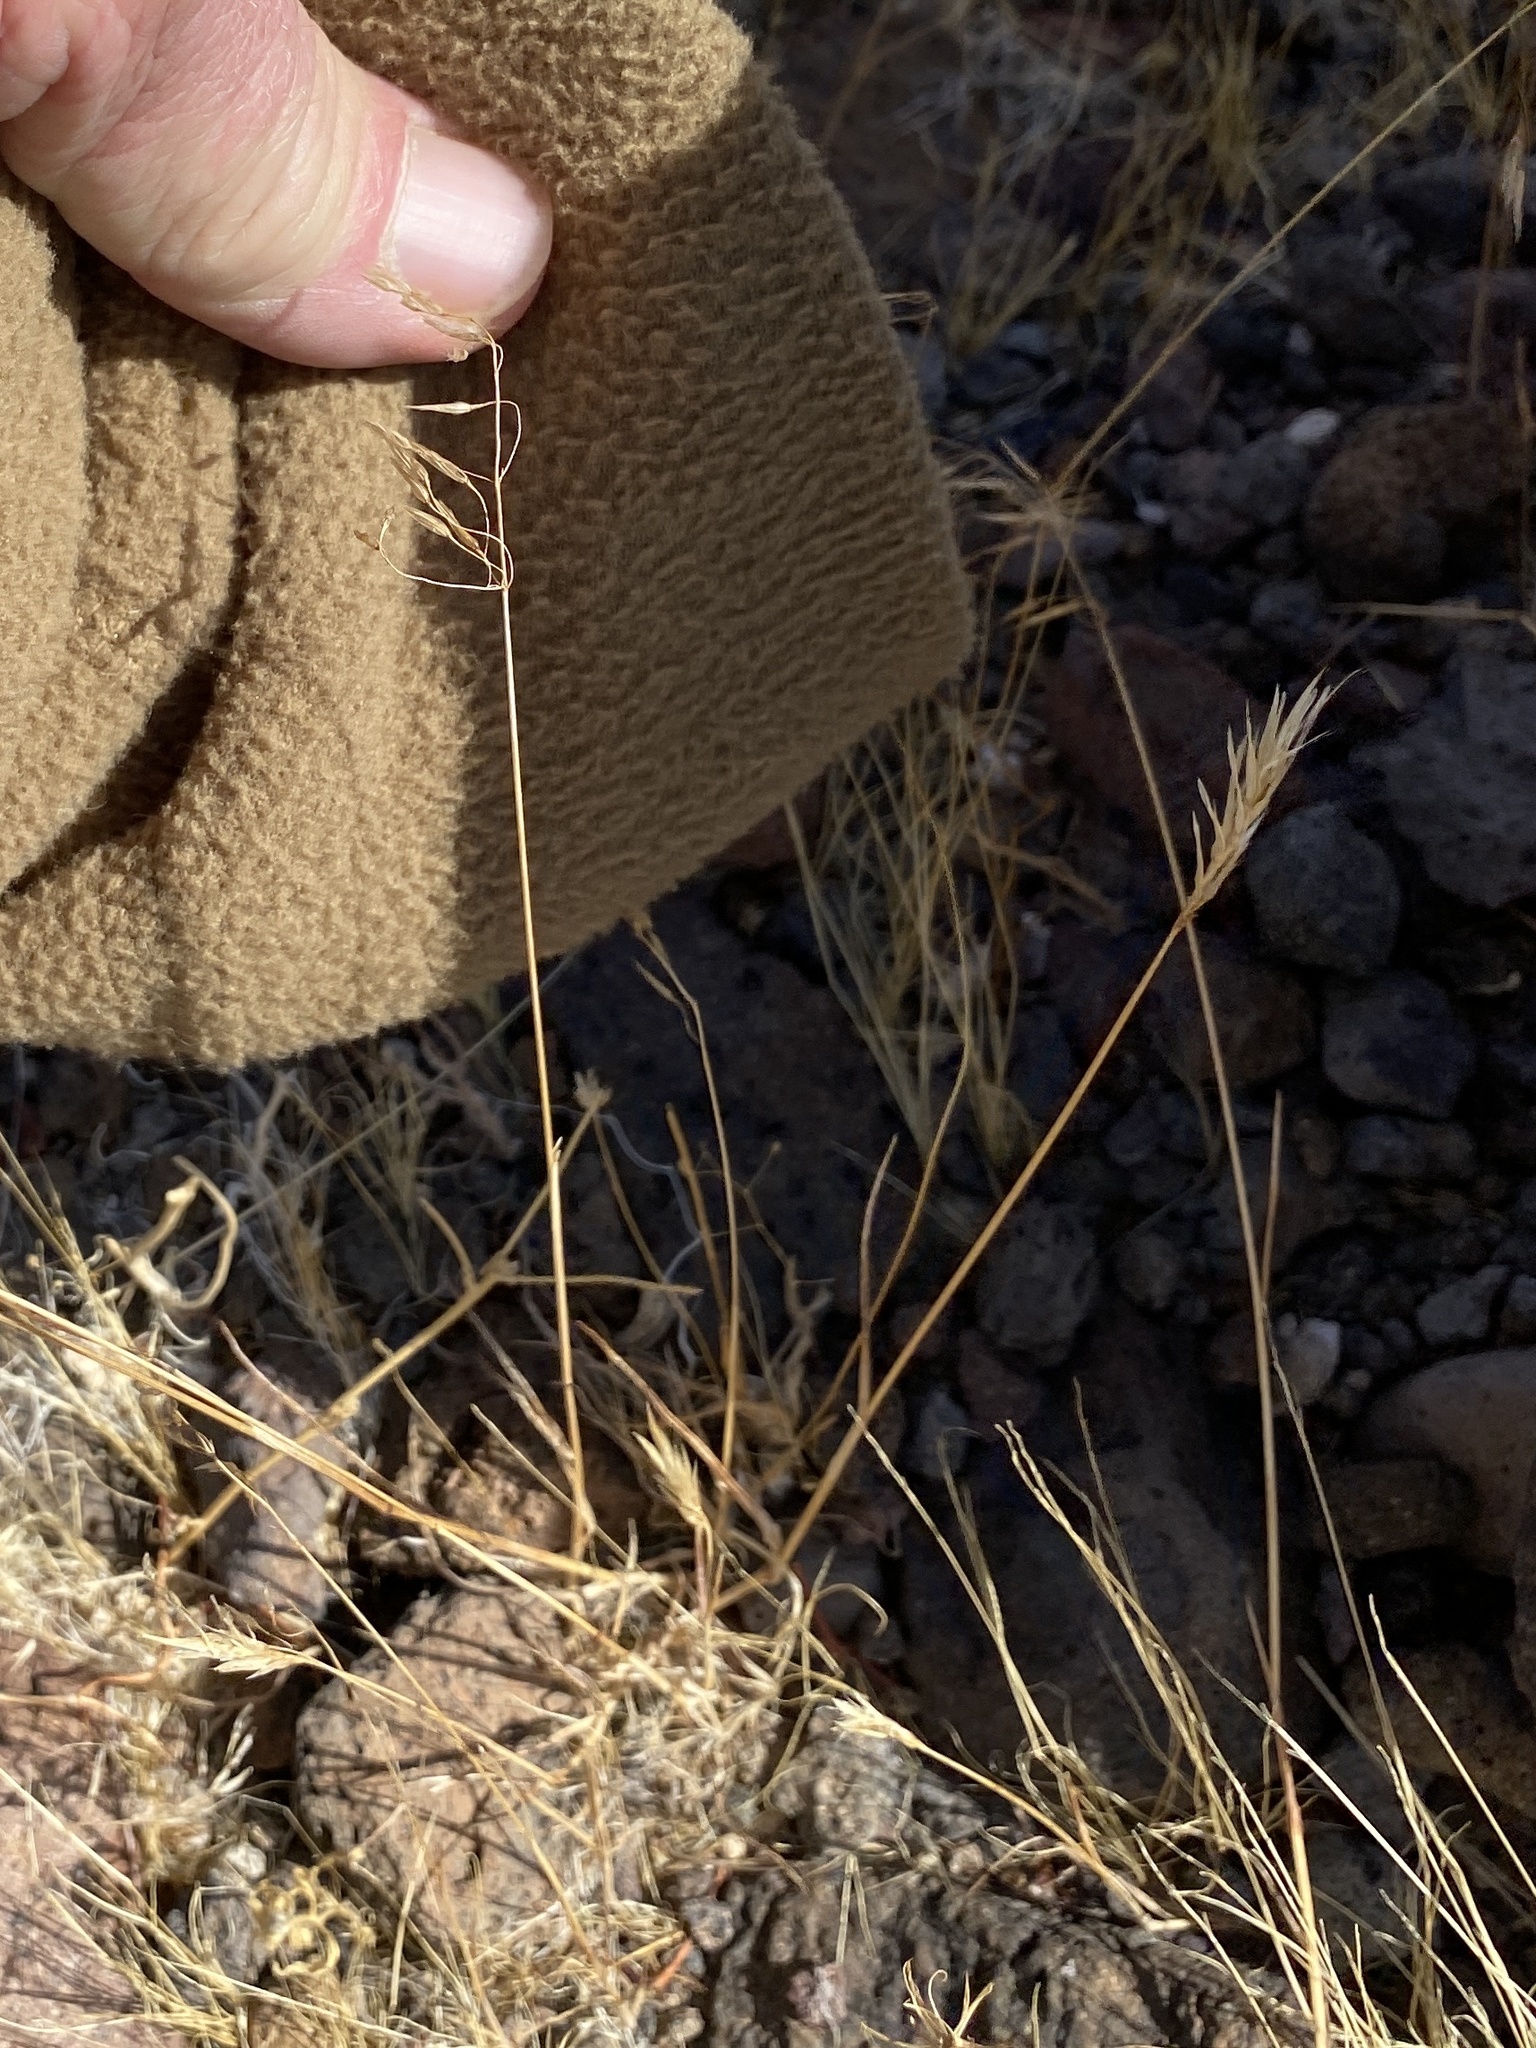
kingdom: Plantae
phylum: Tracheophyta
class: Liliopsida
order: Poales
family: Poaceae
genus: Bromus
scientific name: Bromus tectorum
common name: Cheatgrass
